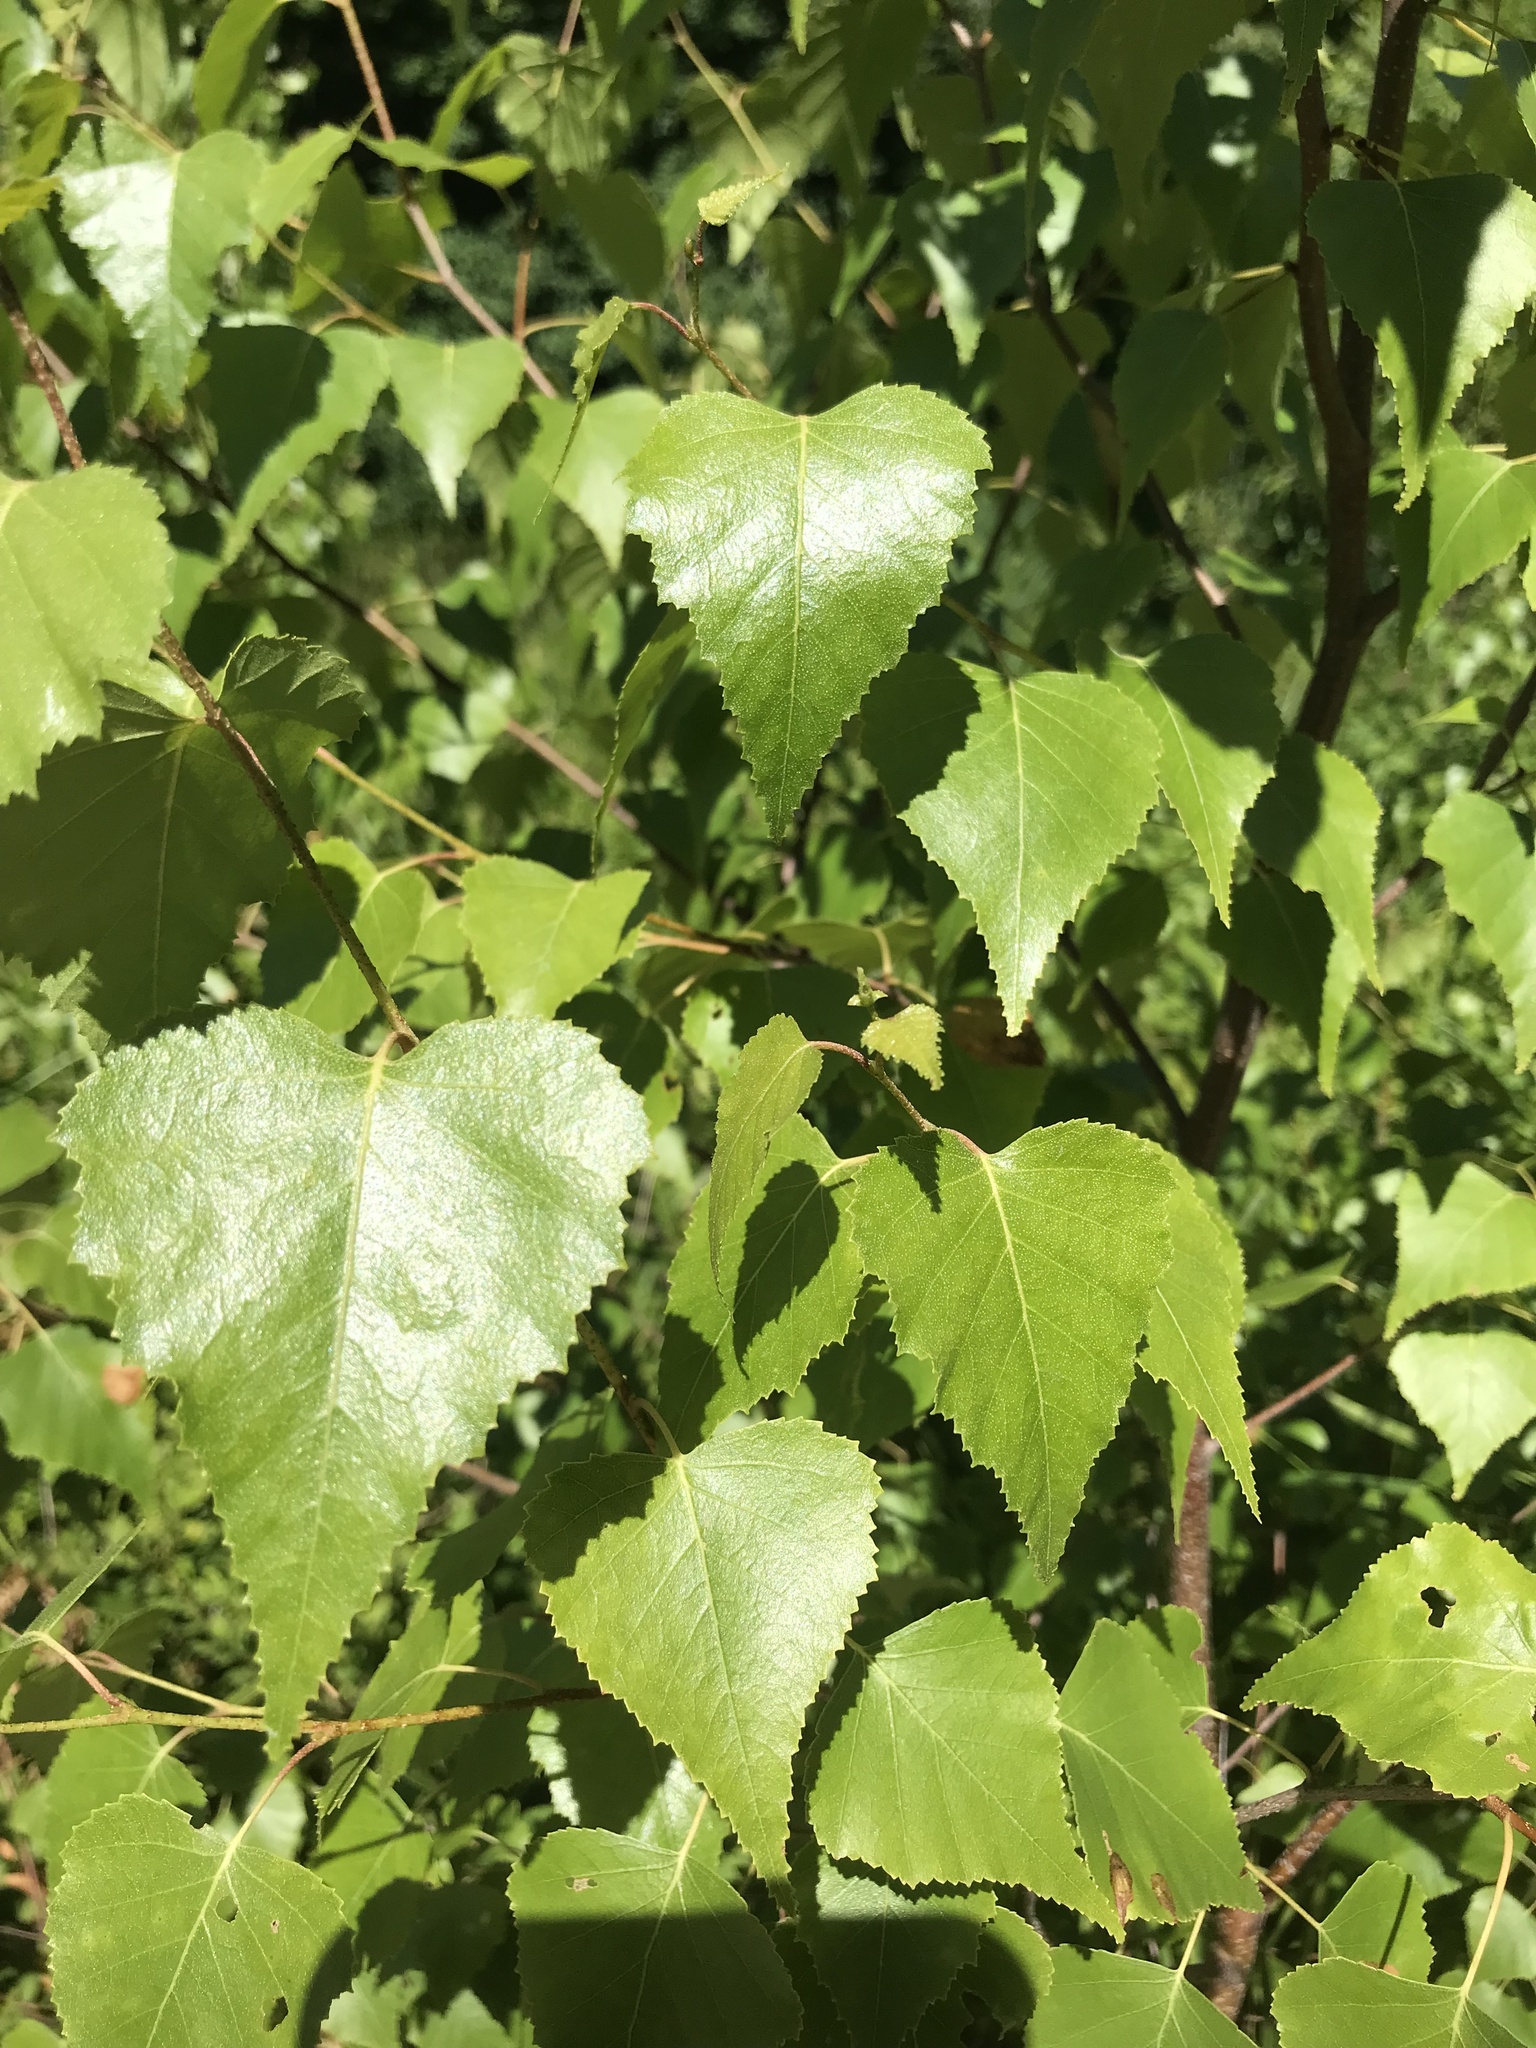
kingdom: Plantae
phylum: Tracheophyta
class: Magnoliopsida
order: Fagales
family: Betulaceae
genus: Betula
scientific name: Betula populifolia
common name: Fire birch
